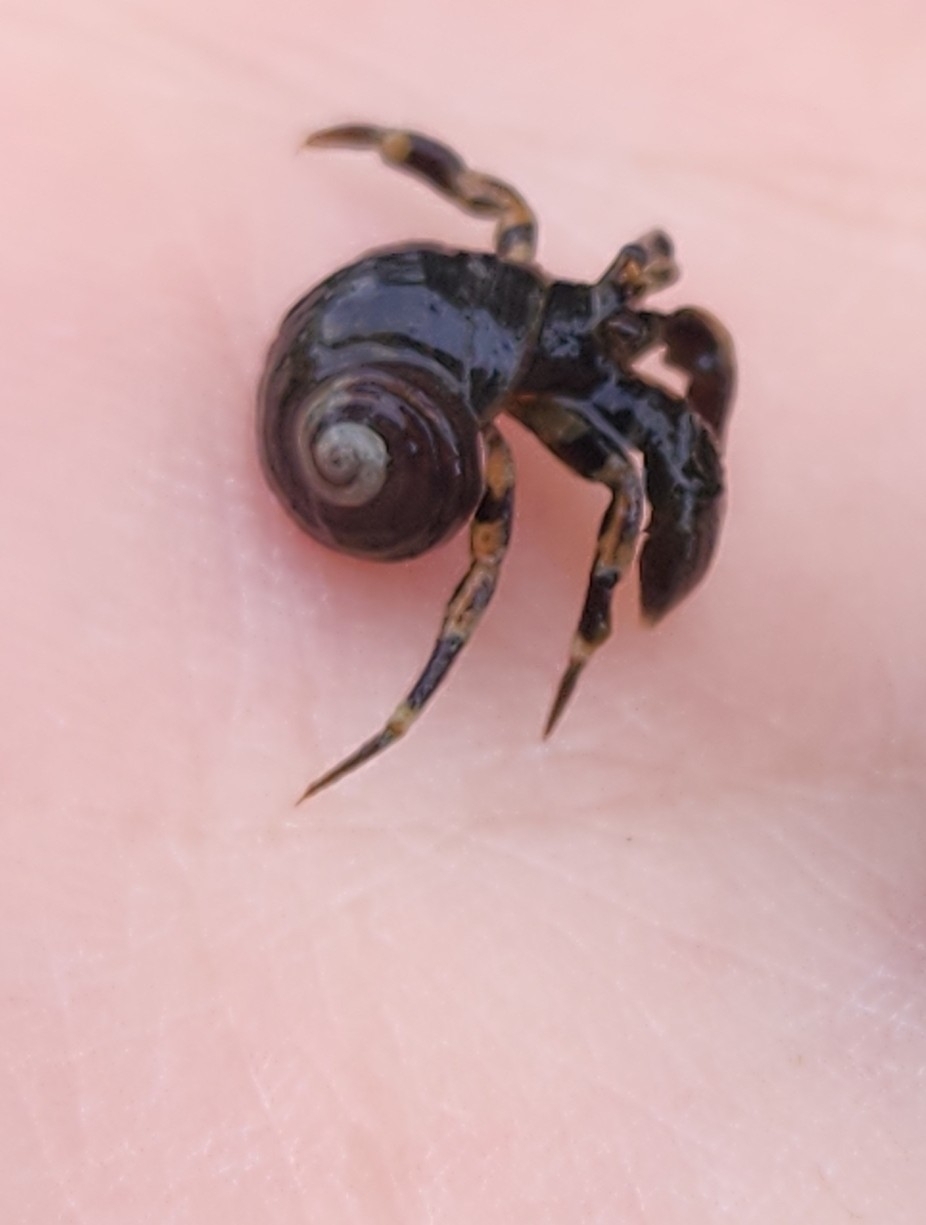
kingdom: Animalia
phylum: Arthropoda
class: Malacostraca
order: Decapoda
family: Paguridae
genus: Pagurus
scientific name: Pagurus hirsutiusculus
